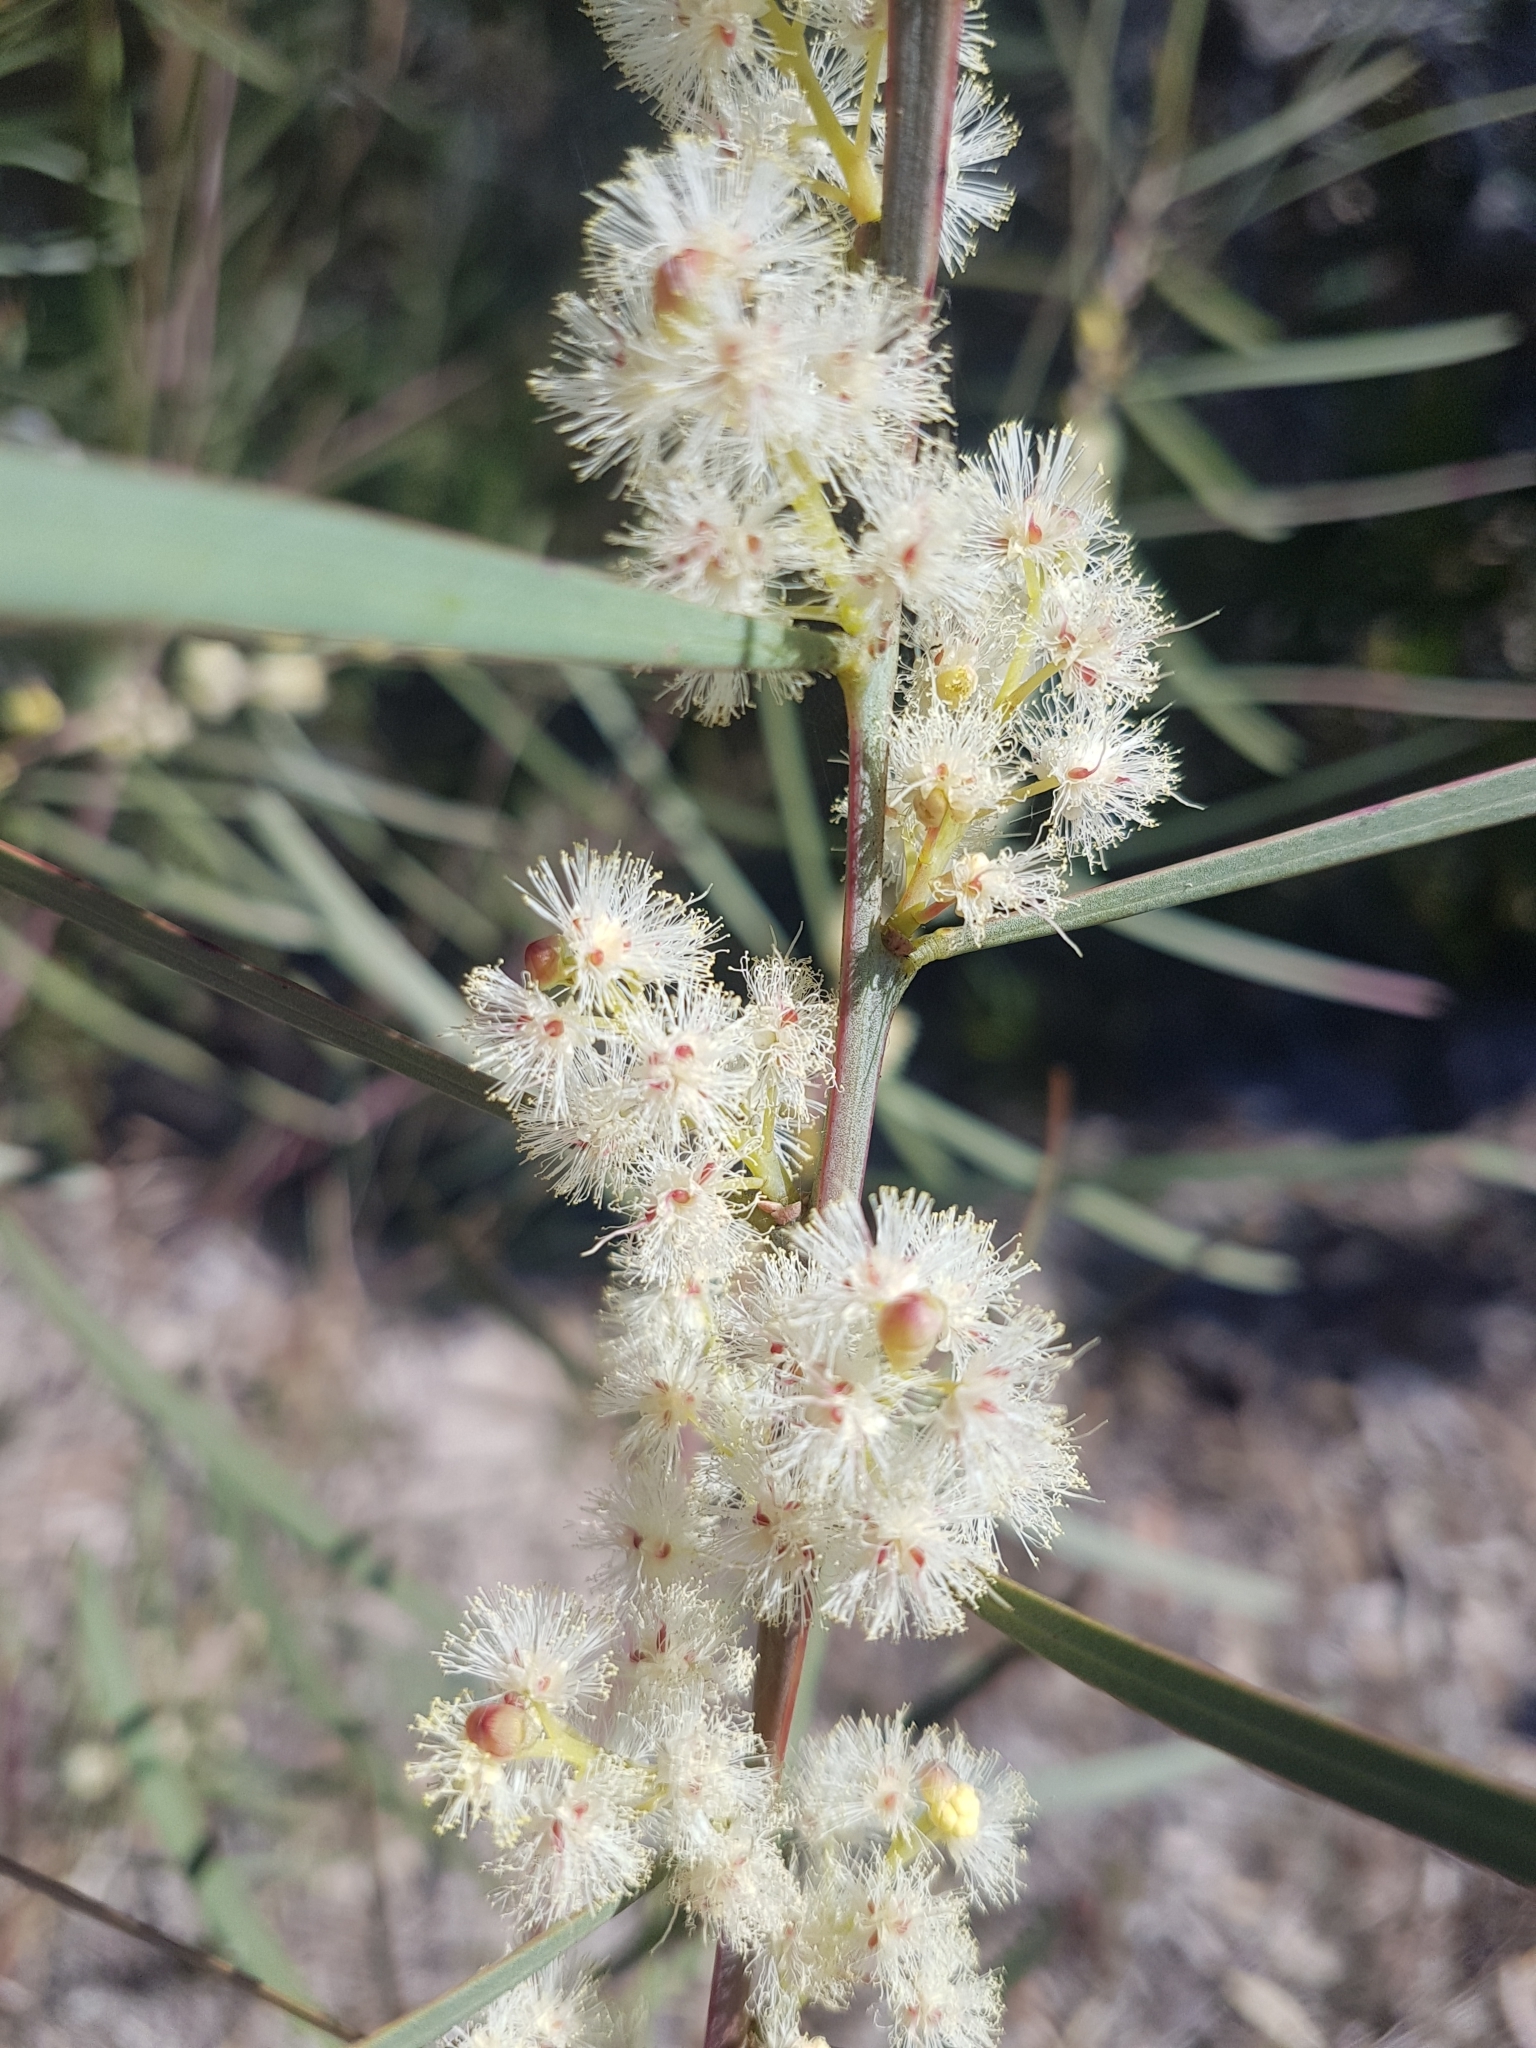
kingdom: Plantae
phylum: Tracheophyta
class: Magnoliopsida
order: Fabales
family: Fabaceae
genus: Acacia
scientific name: Acacia suaveolens
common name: Sweet acacia
